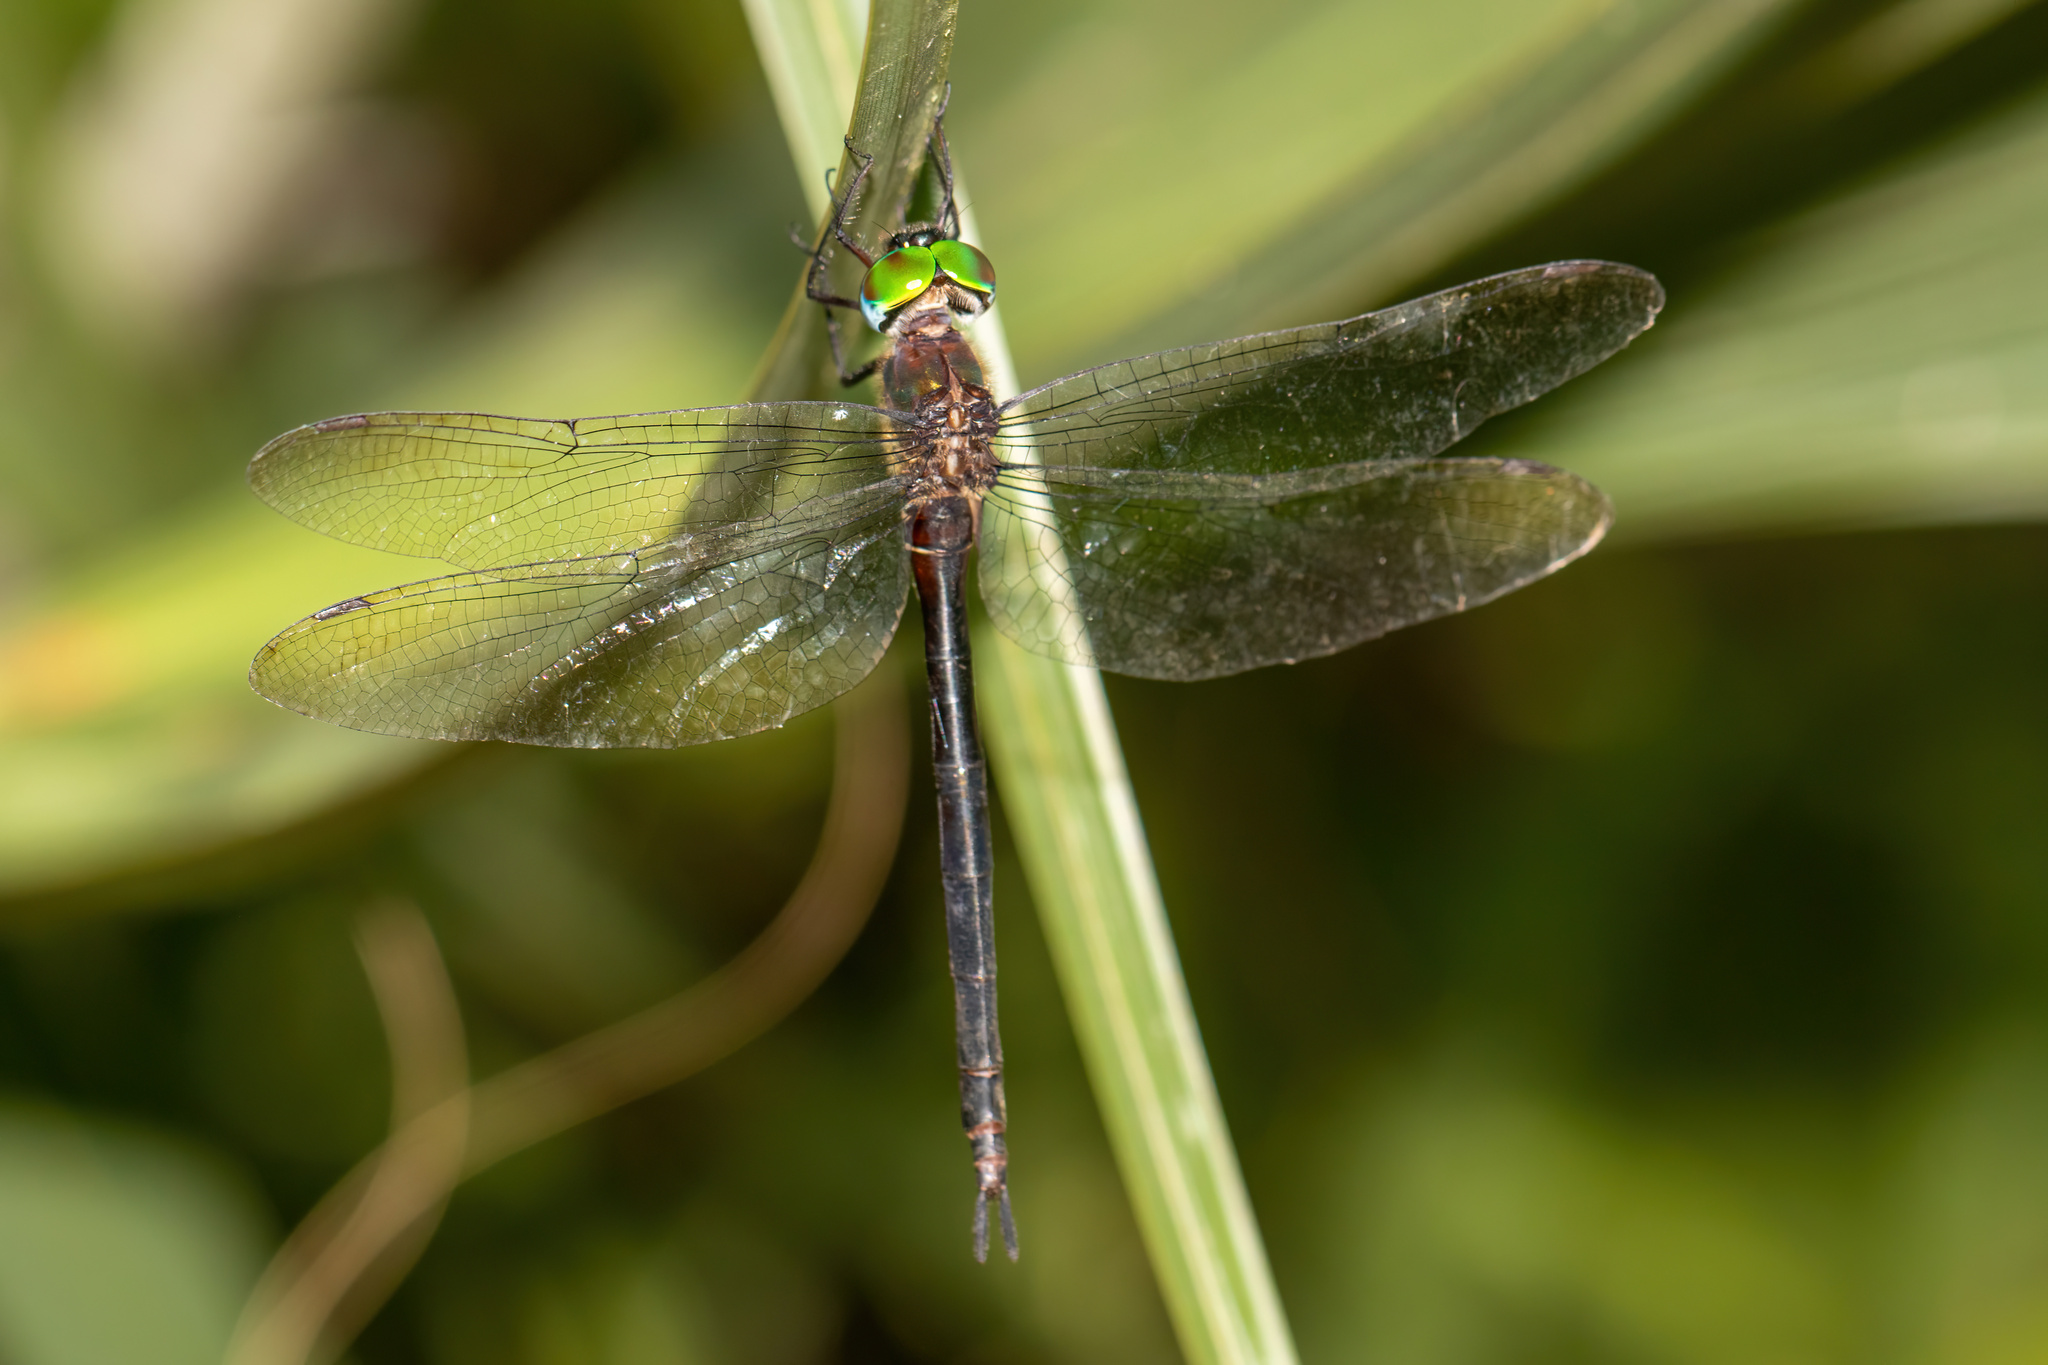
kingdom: Animalia
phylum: Arthropoda
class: Insecta
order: Odonata
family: Corduliidae
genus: Somatochlora
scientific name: Somatochlora filosa
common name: Fine-lined emerald
